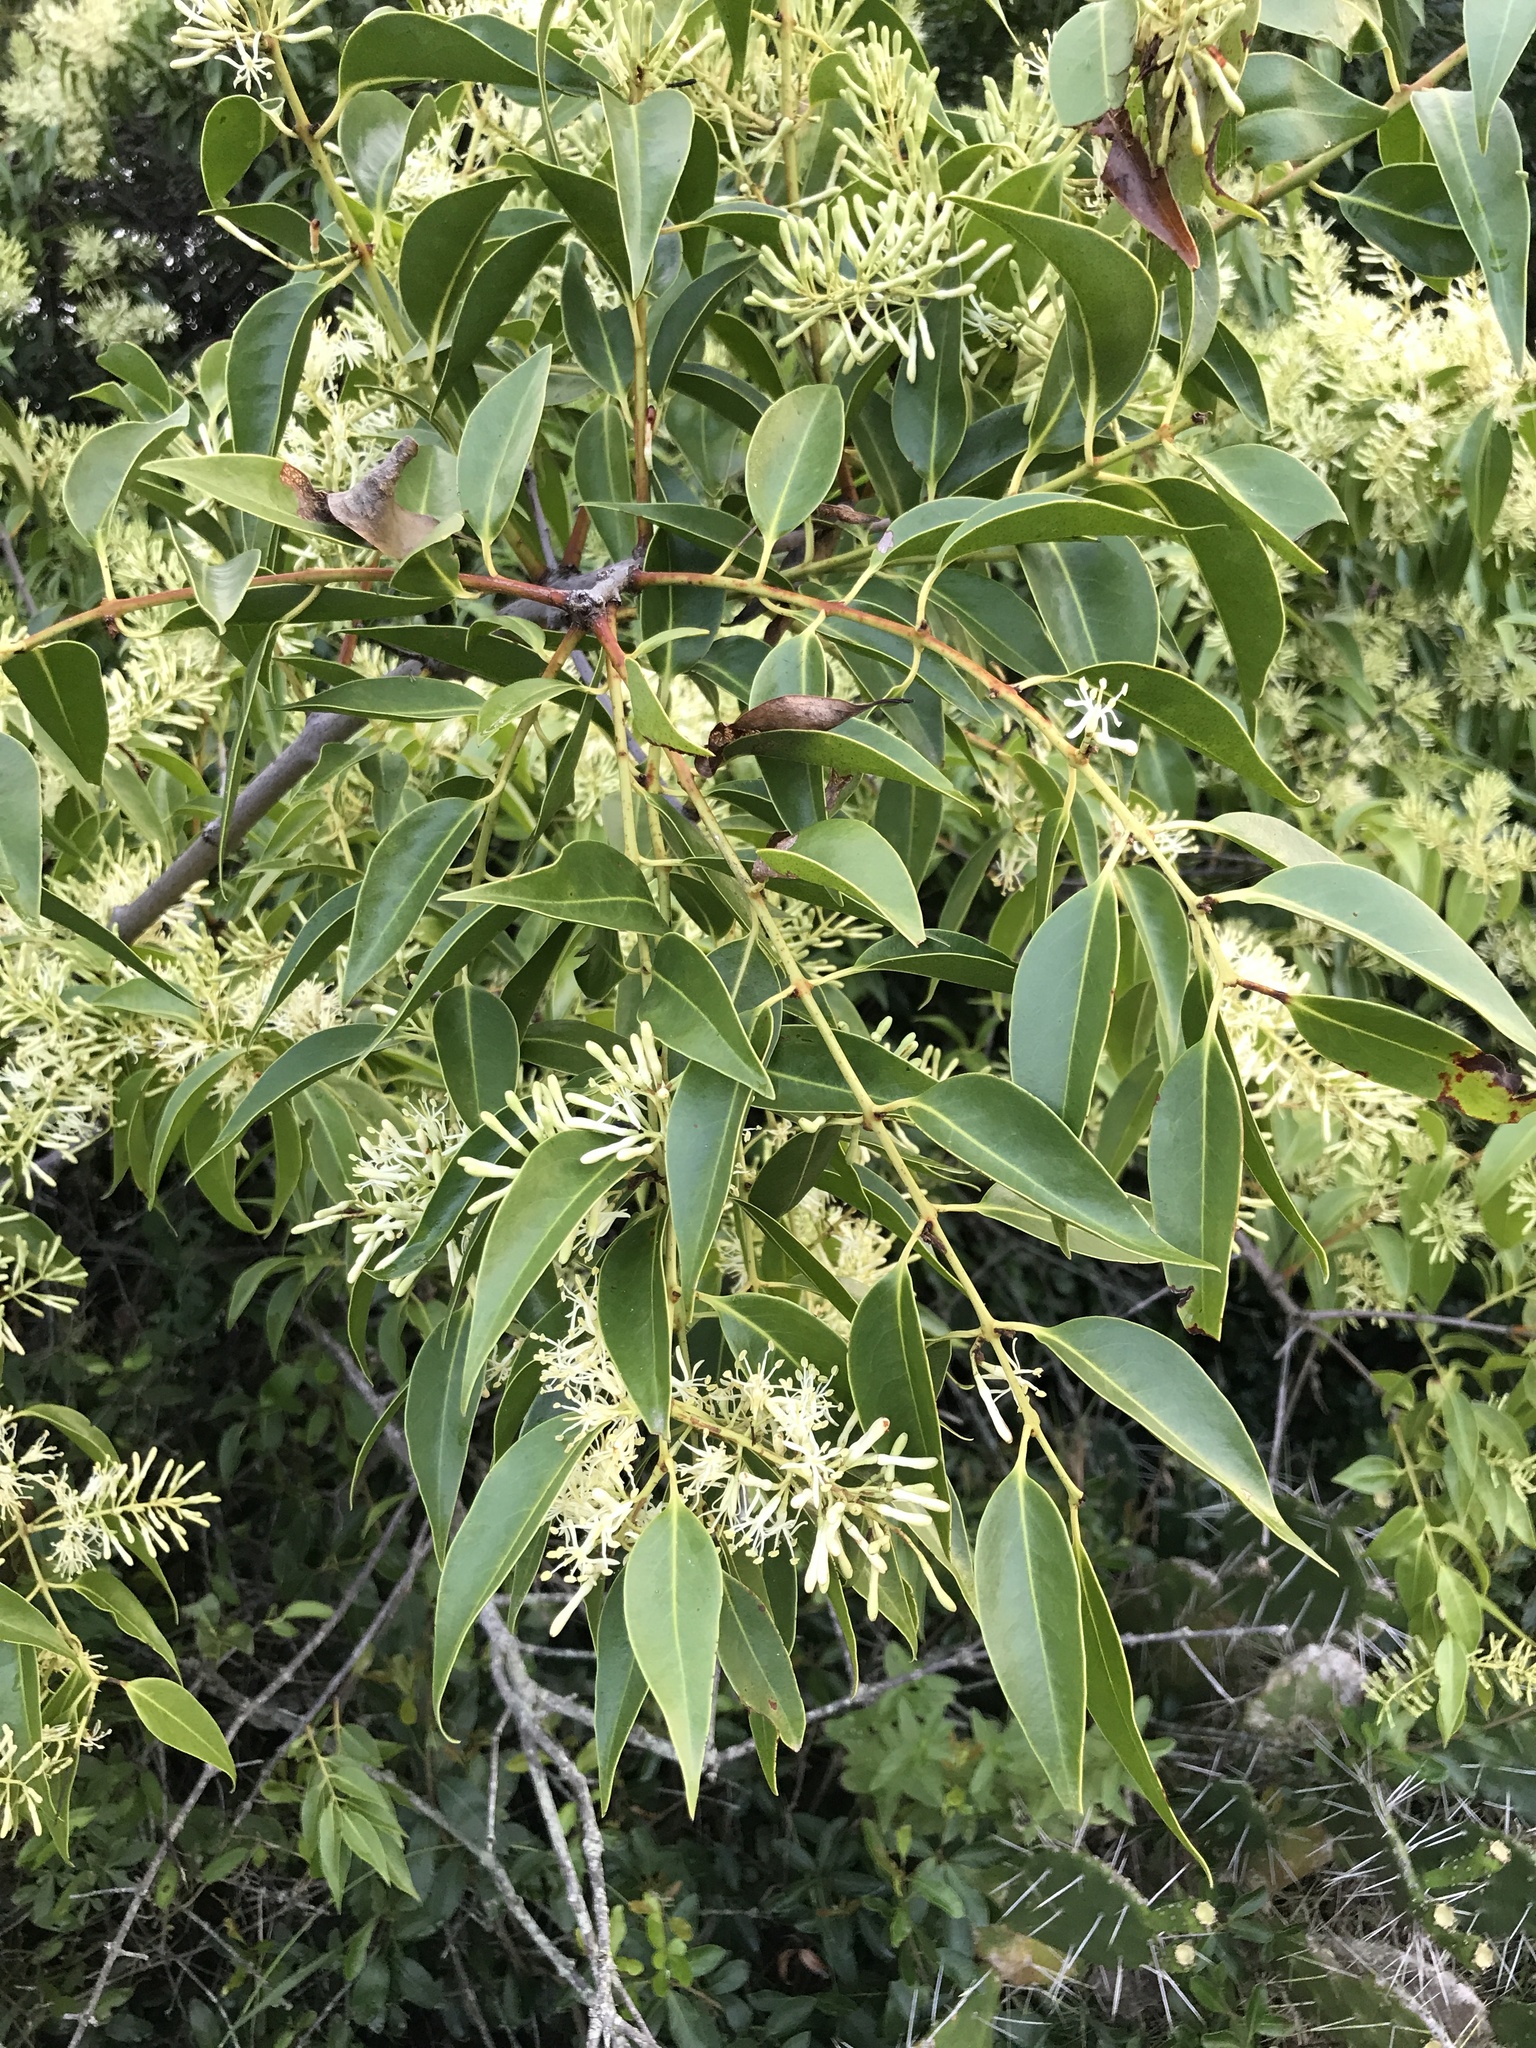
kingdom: Plantae
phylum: Tracheophyta
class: Magnoliopsida
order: Santalales
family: Loranthaceae
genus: Tripodanthus
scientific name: Tripodanthus acutifolius
